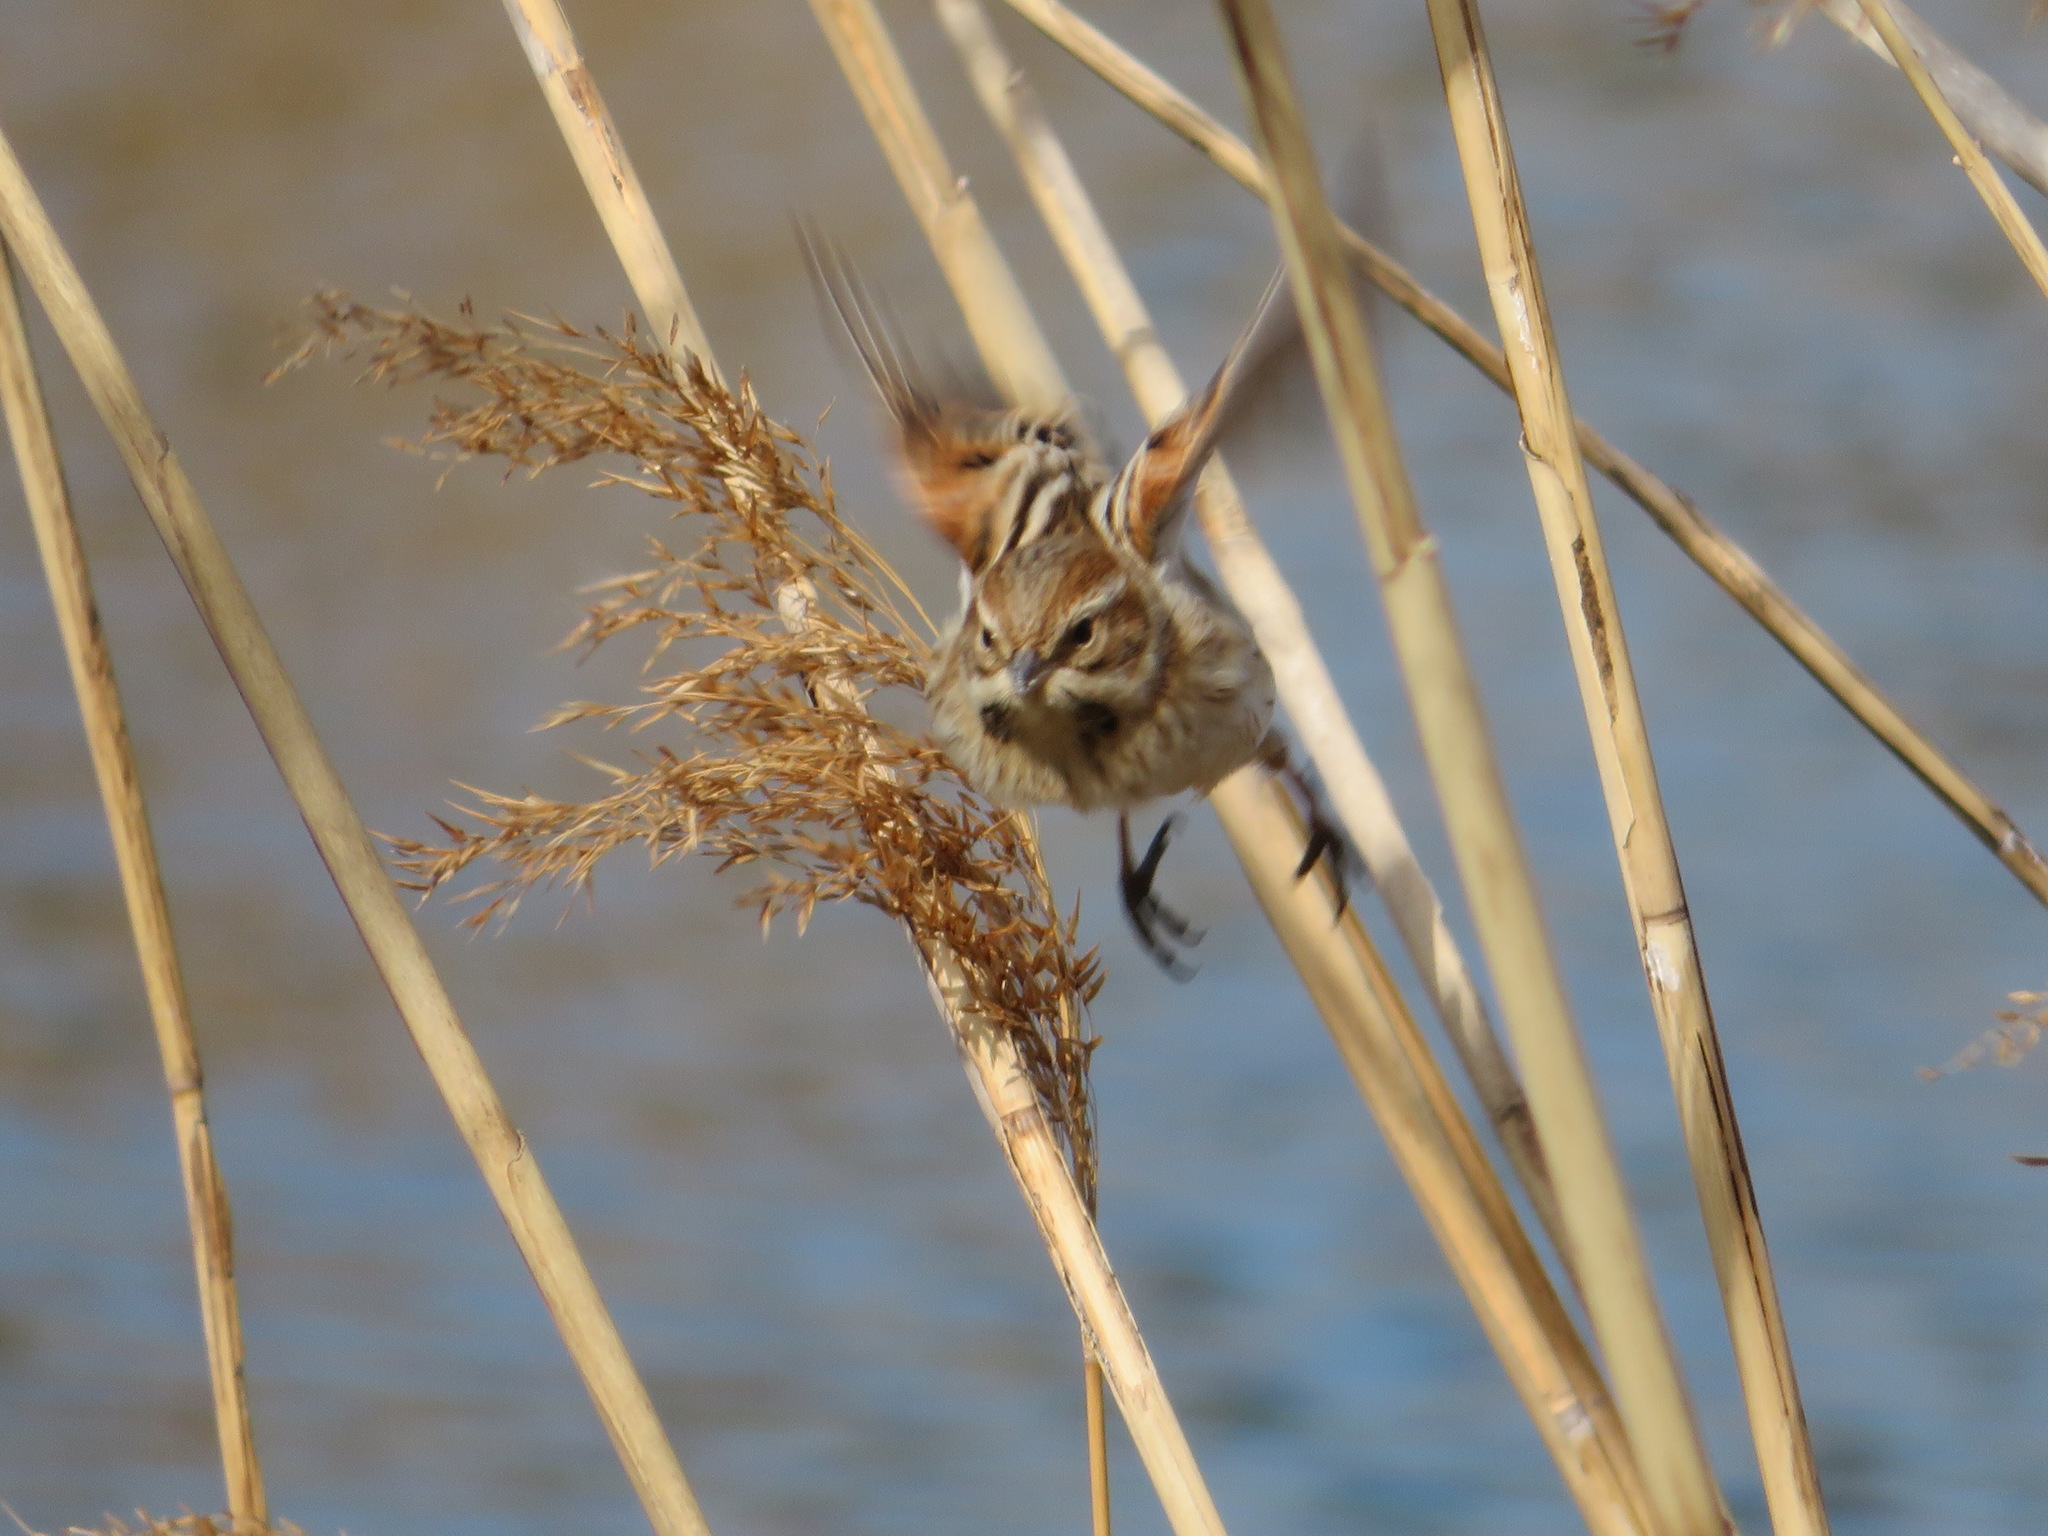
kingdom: Animalia
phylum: Chordata
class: Aves
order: Passeriformes
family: Emberizidae
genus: Emberiza
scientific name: Emberiza schoeniclus
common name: Reed bunting
